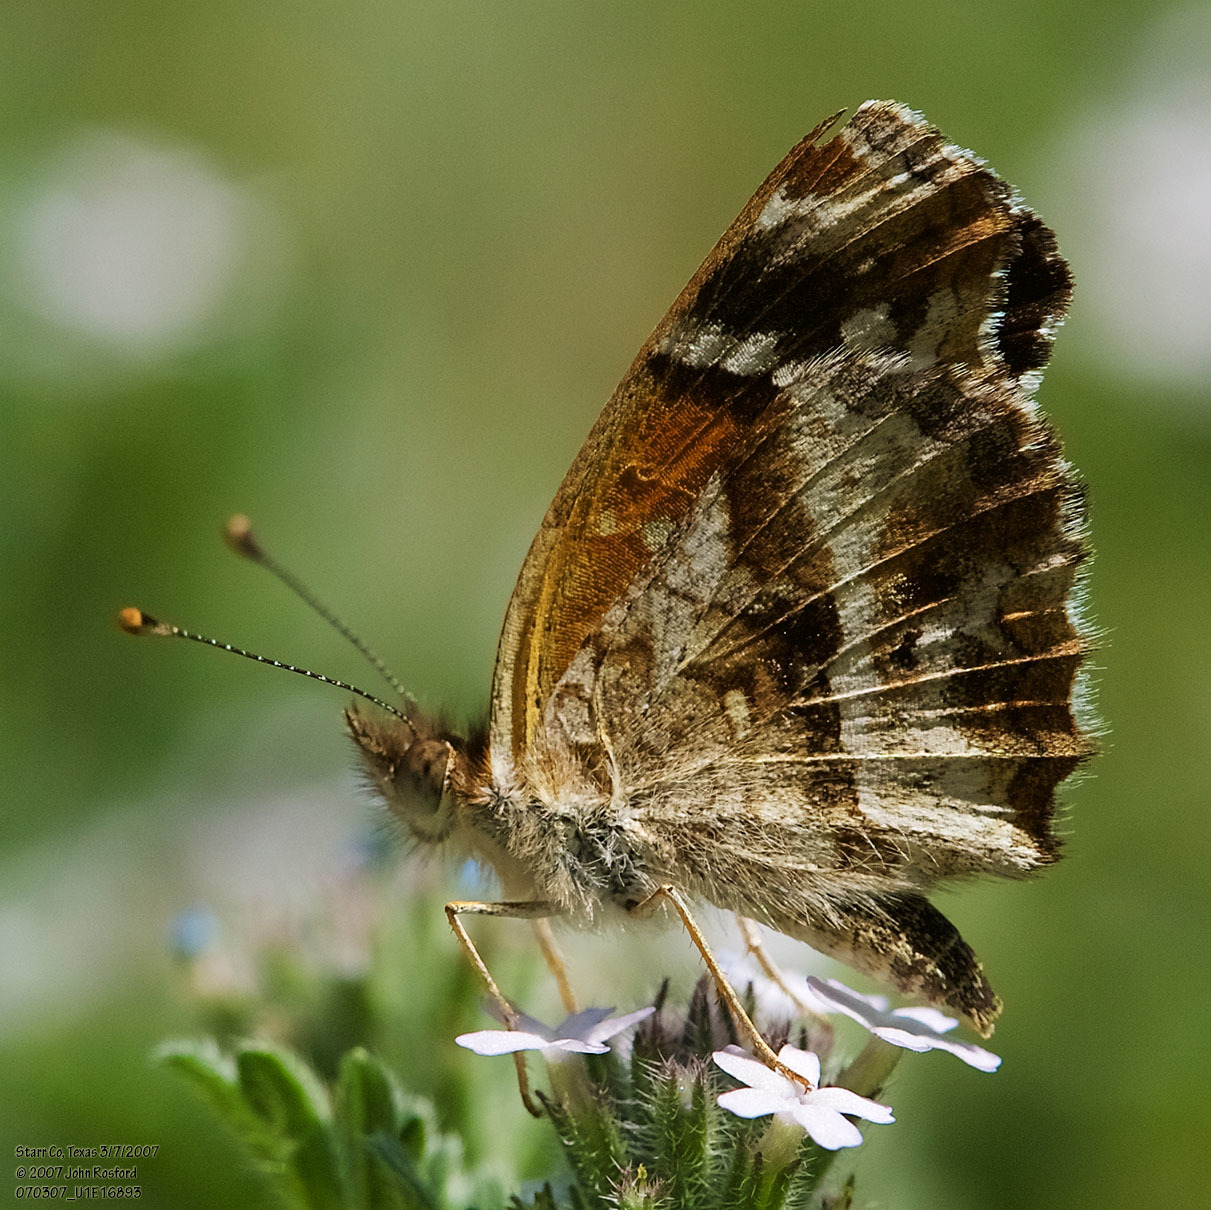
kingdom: Animalia
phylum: Arthropoda
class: Insecta
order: Lepidoptera
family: Nymphalidae
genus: Anthanassa
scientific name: Anthanassa texana
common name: Texan crescent
